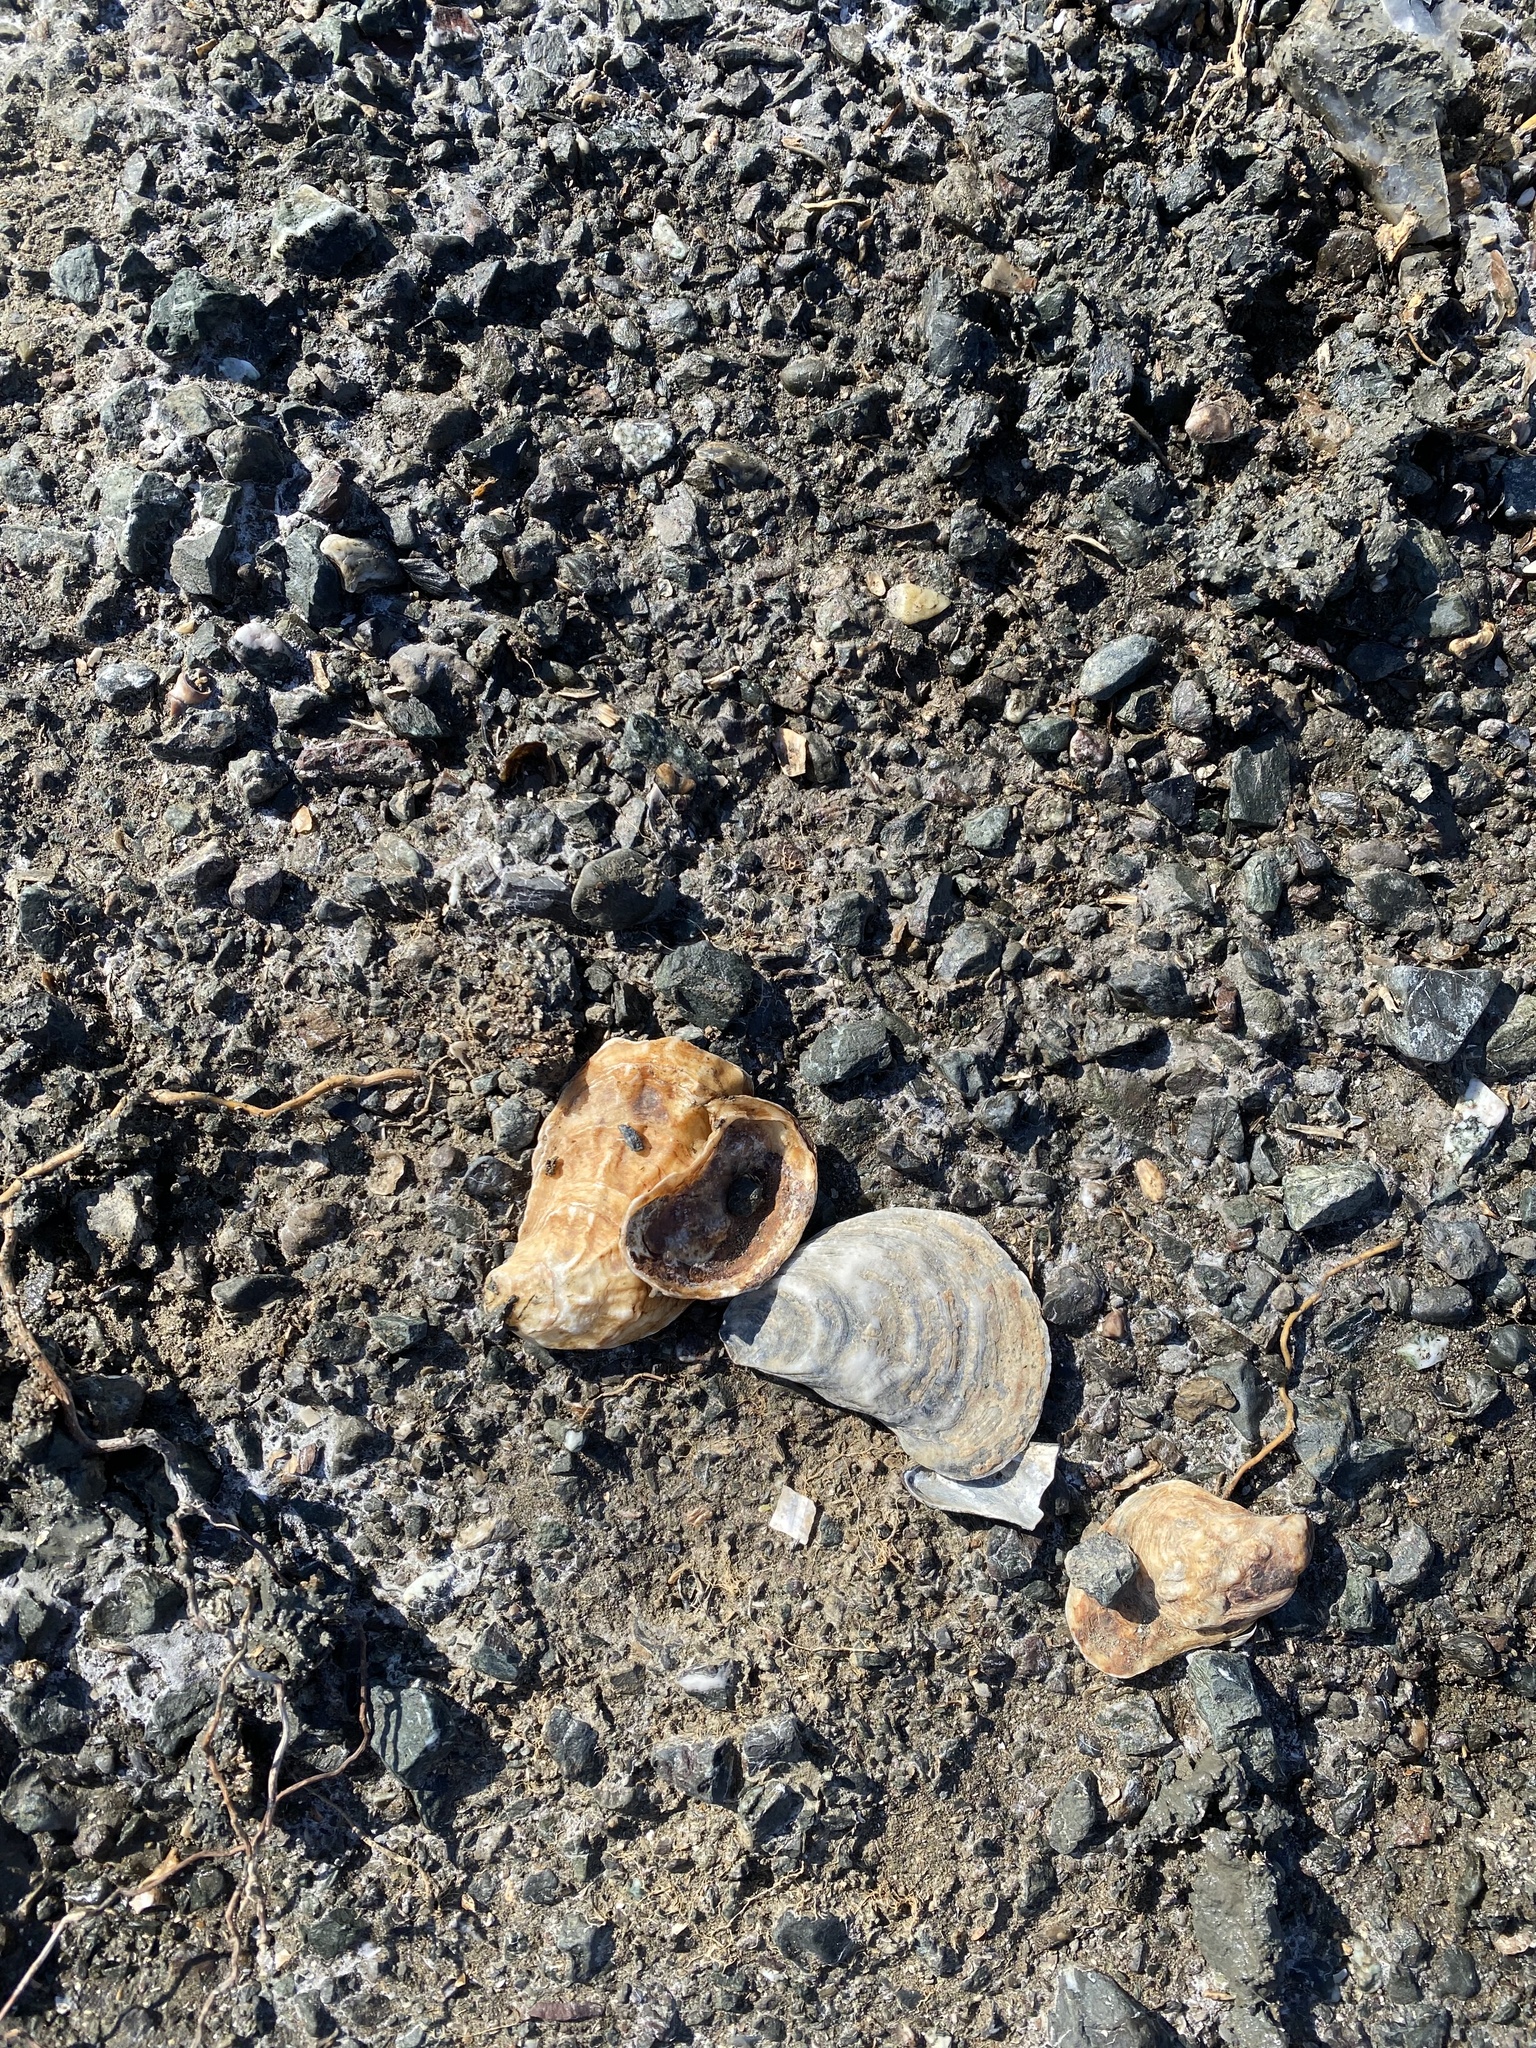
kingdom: Animalia
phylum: Mollusca
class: Bivalvia
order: Ostreida
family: Ostreidae
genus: Ostrea
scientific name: Ostrea lurida
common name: Olympia flat oyster
